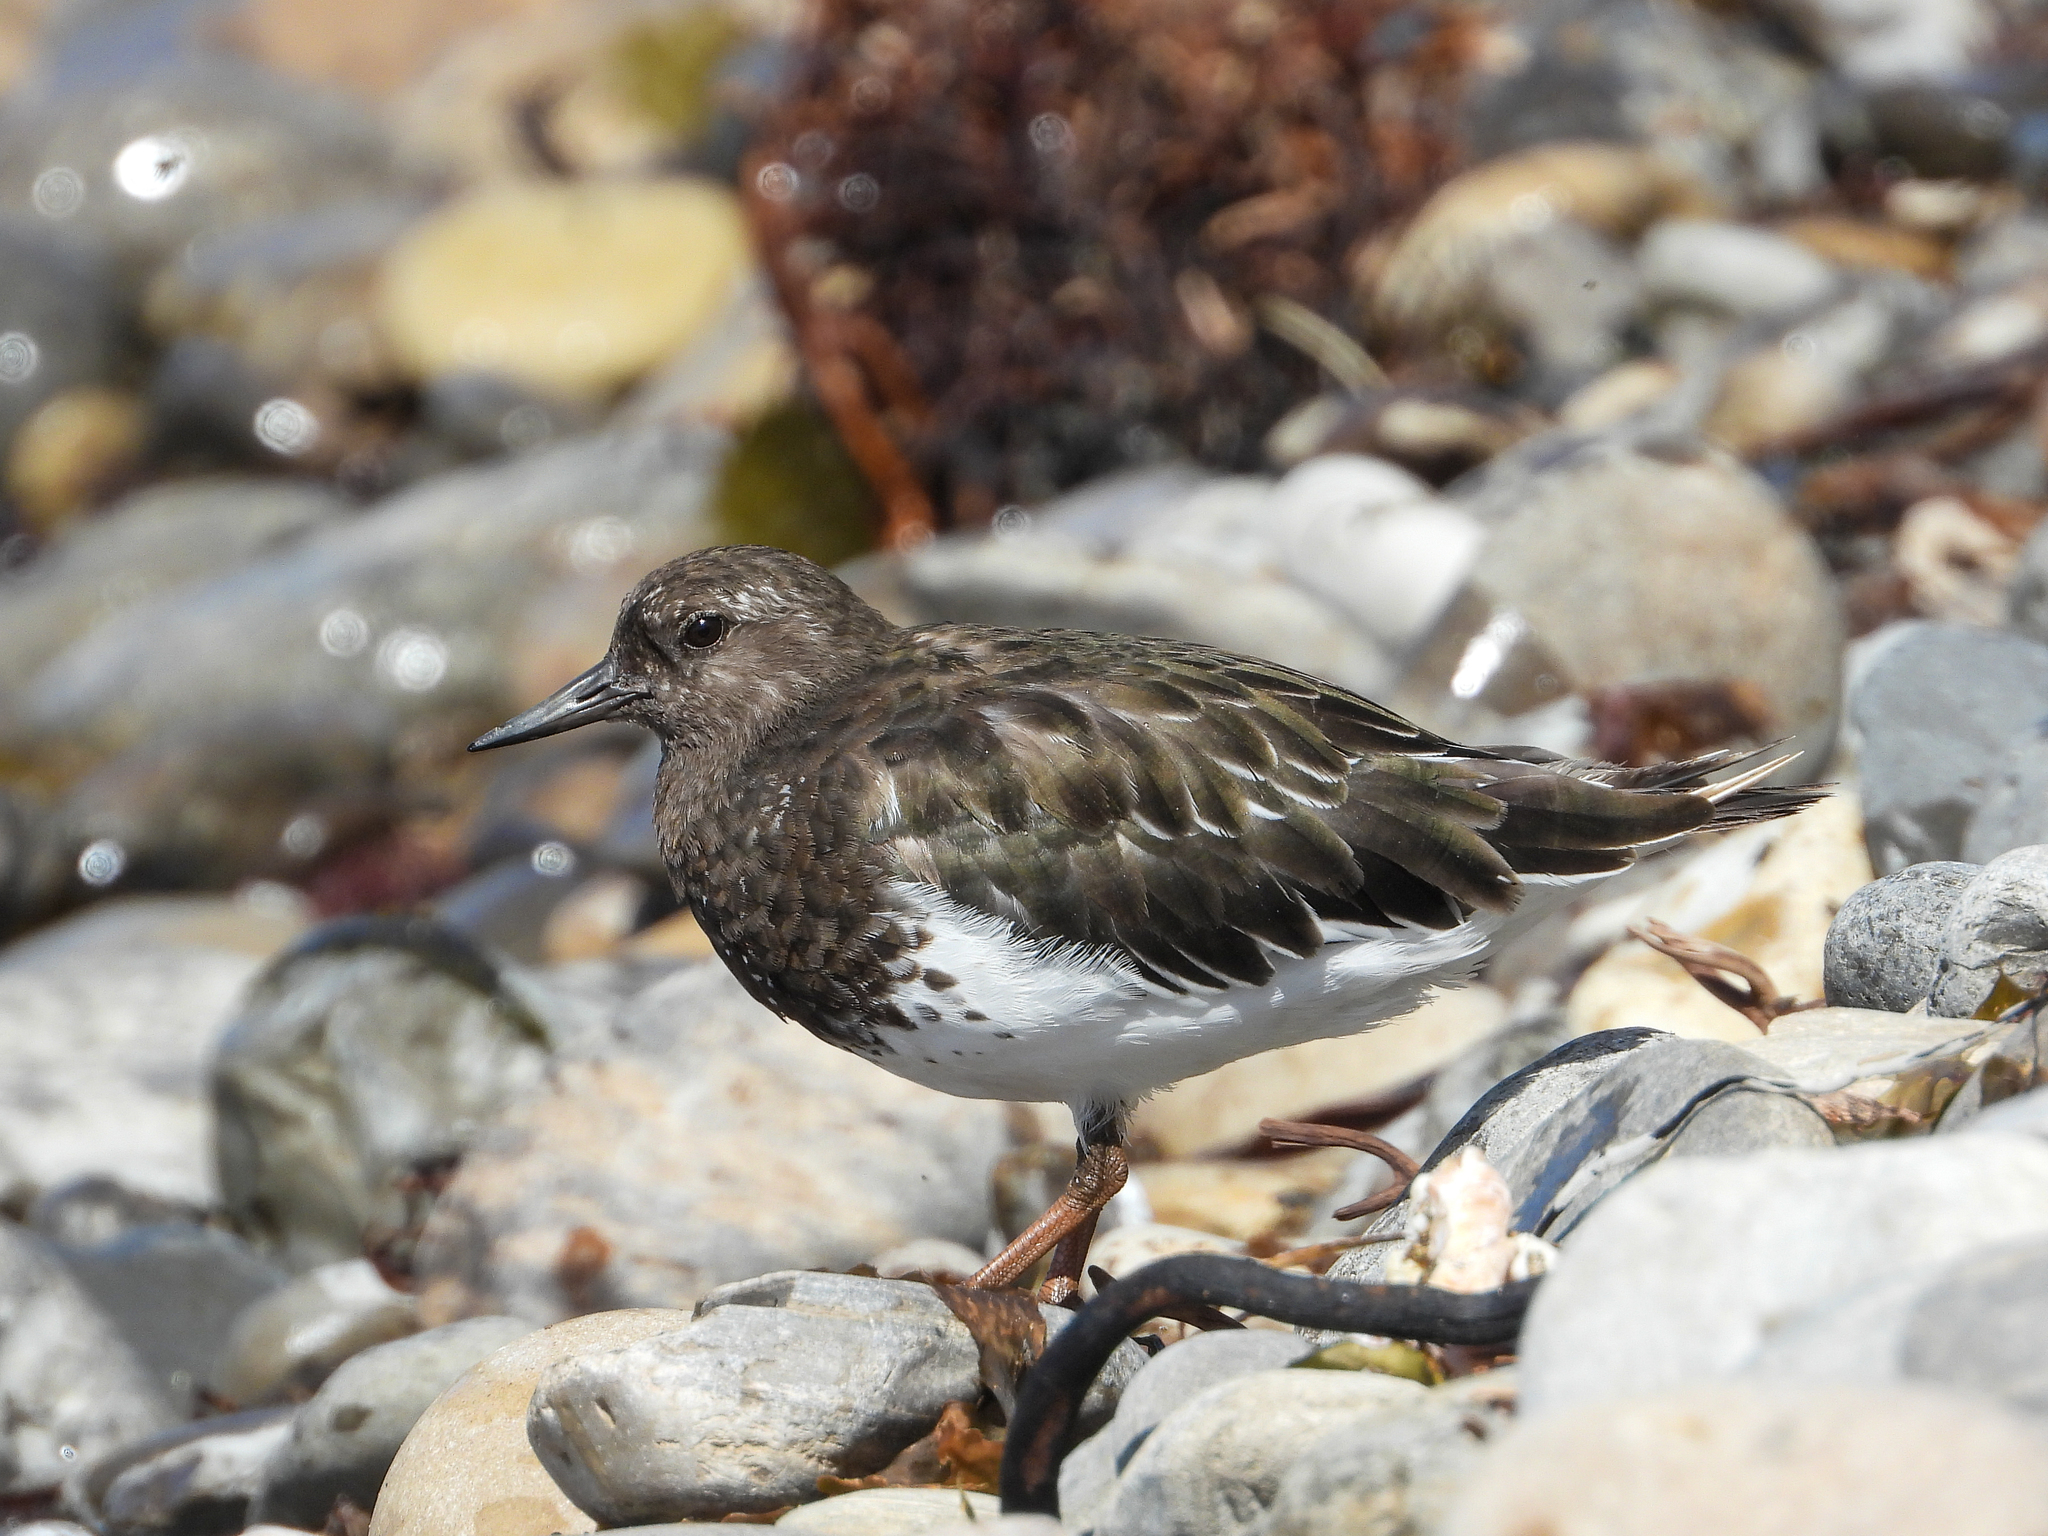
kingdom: Animalia
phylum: Chordata
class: Aves
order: Charadriiformes
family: Scolopacidae
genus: Arenaria
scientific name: Arenaria melanocephala
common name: Black turnstone
